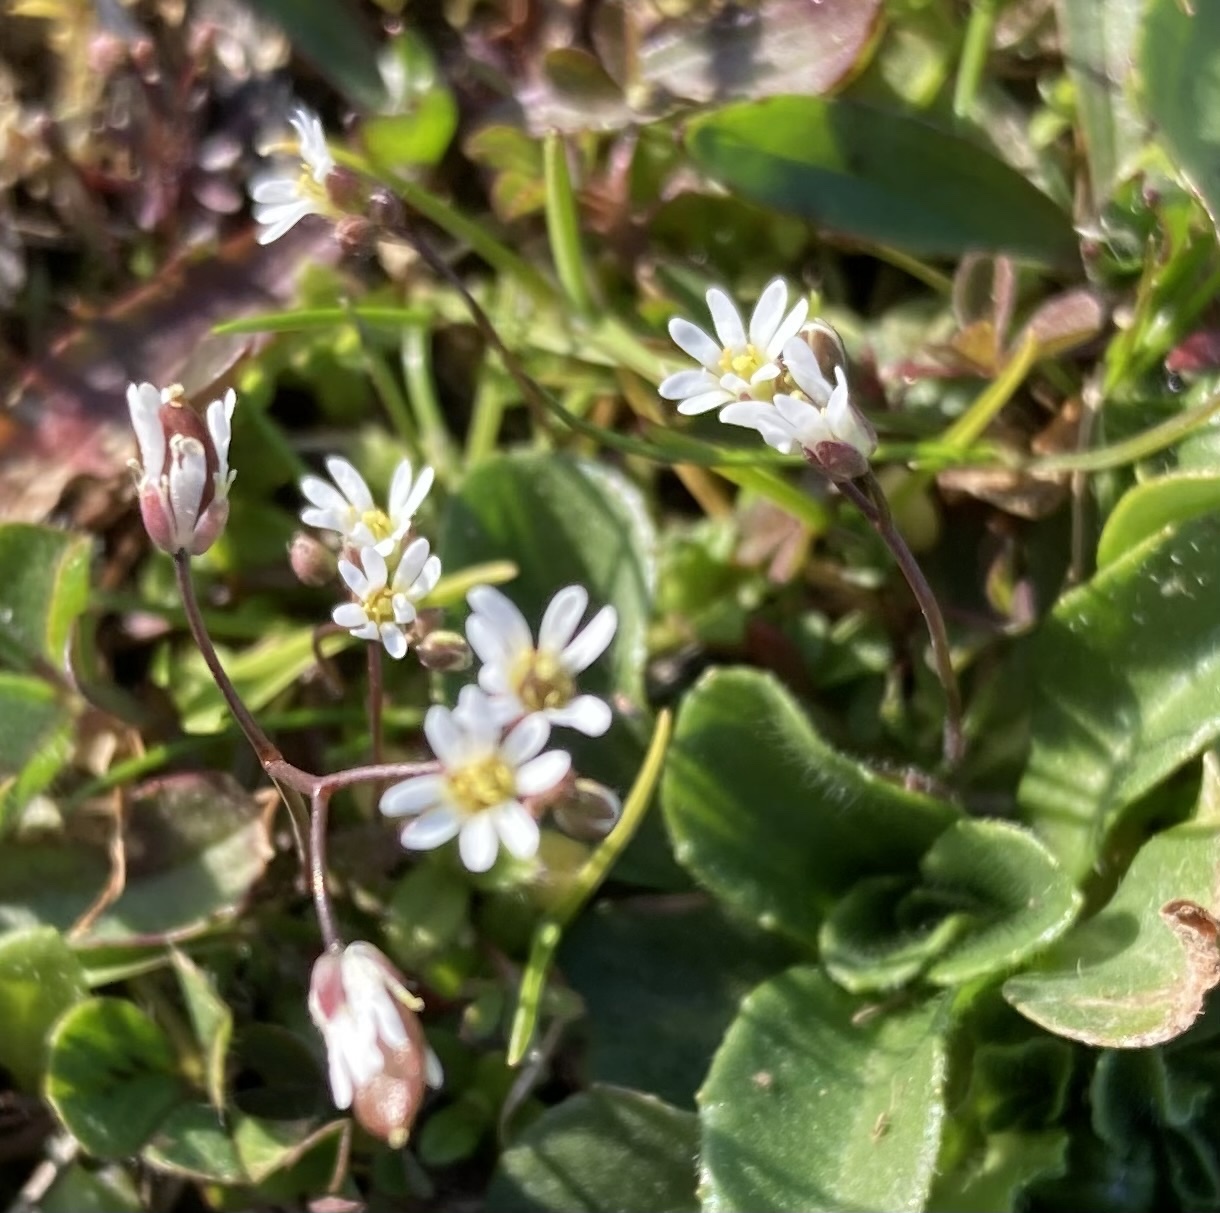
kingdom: Plantae
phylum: Tracheophyta
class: Magnoliopsida
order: Brassicales
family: Brassicaceae
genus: Draba
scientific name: Draba verna
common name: Spring draba
